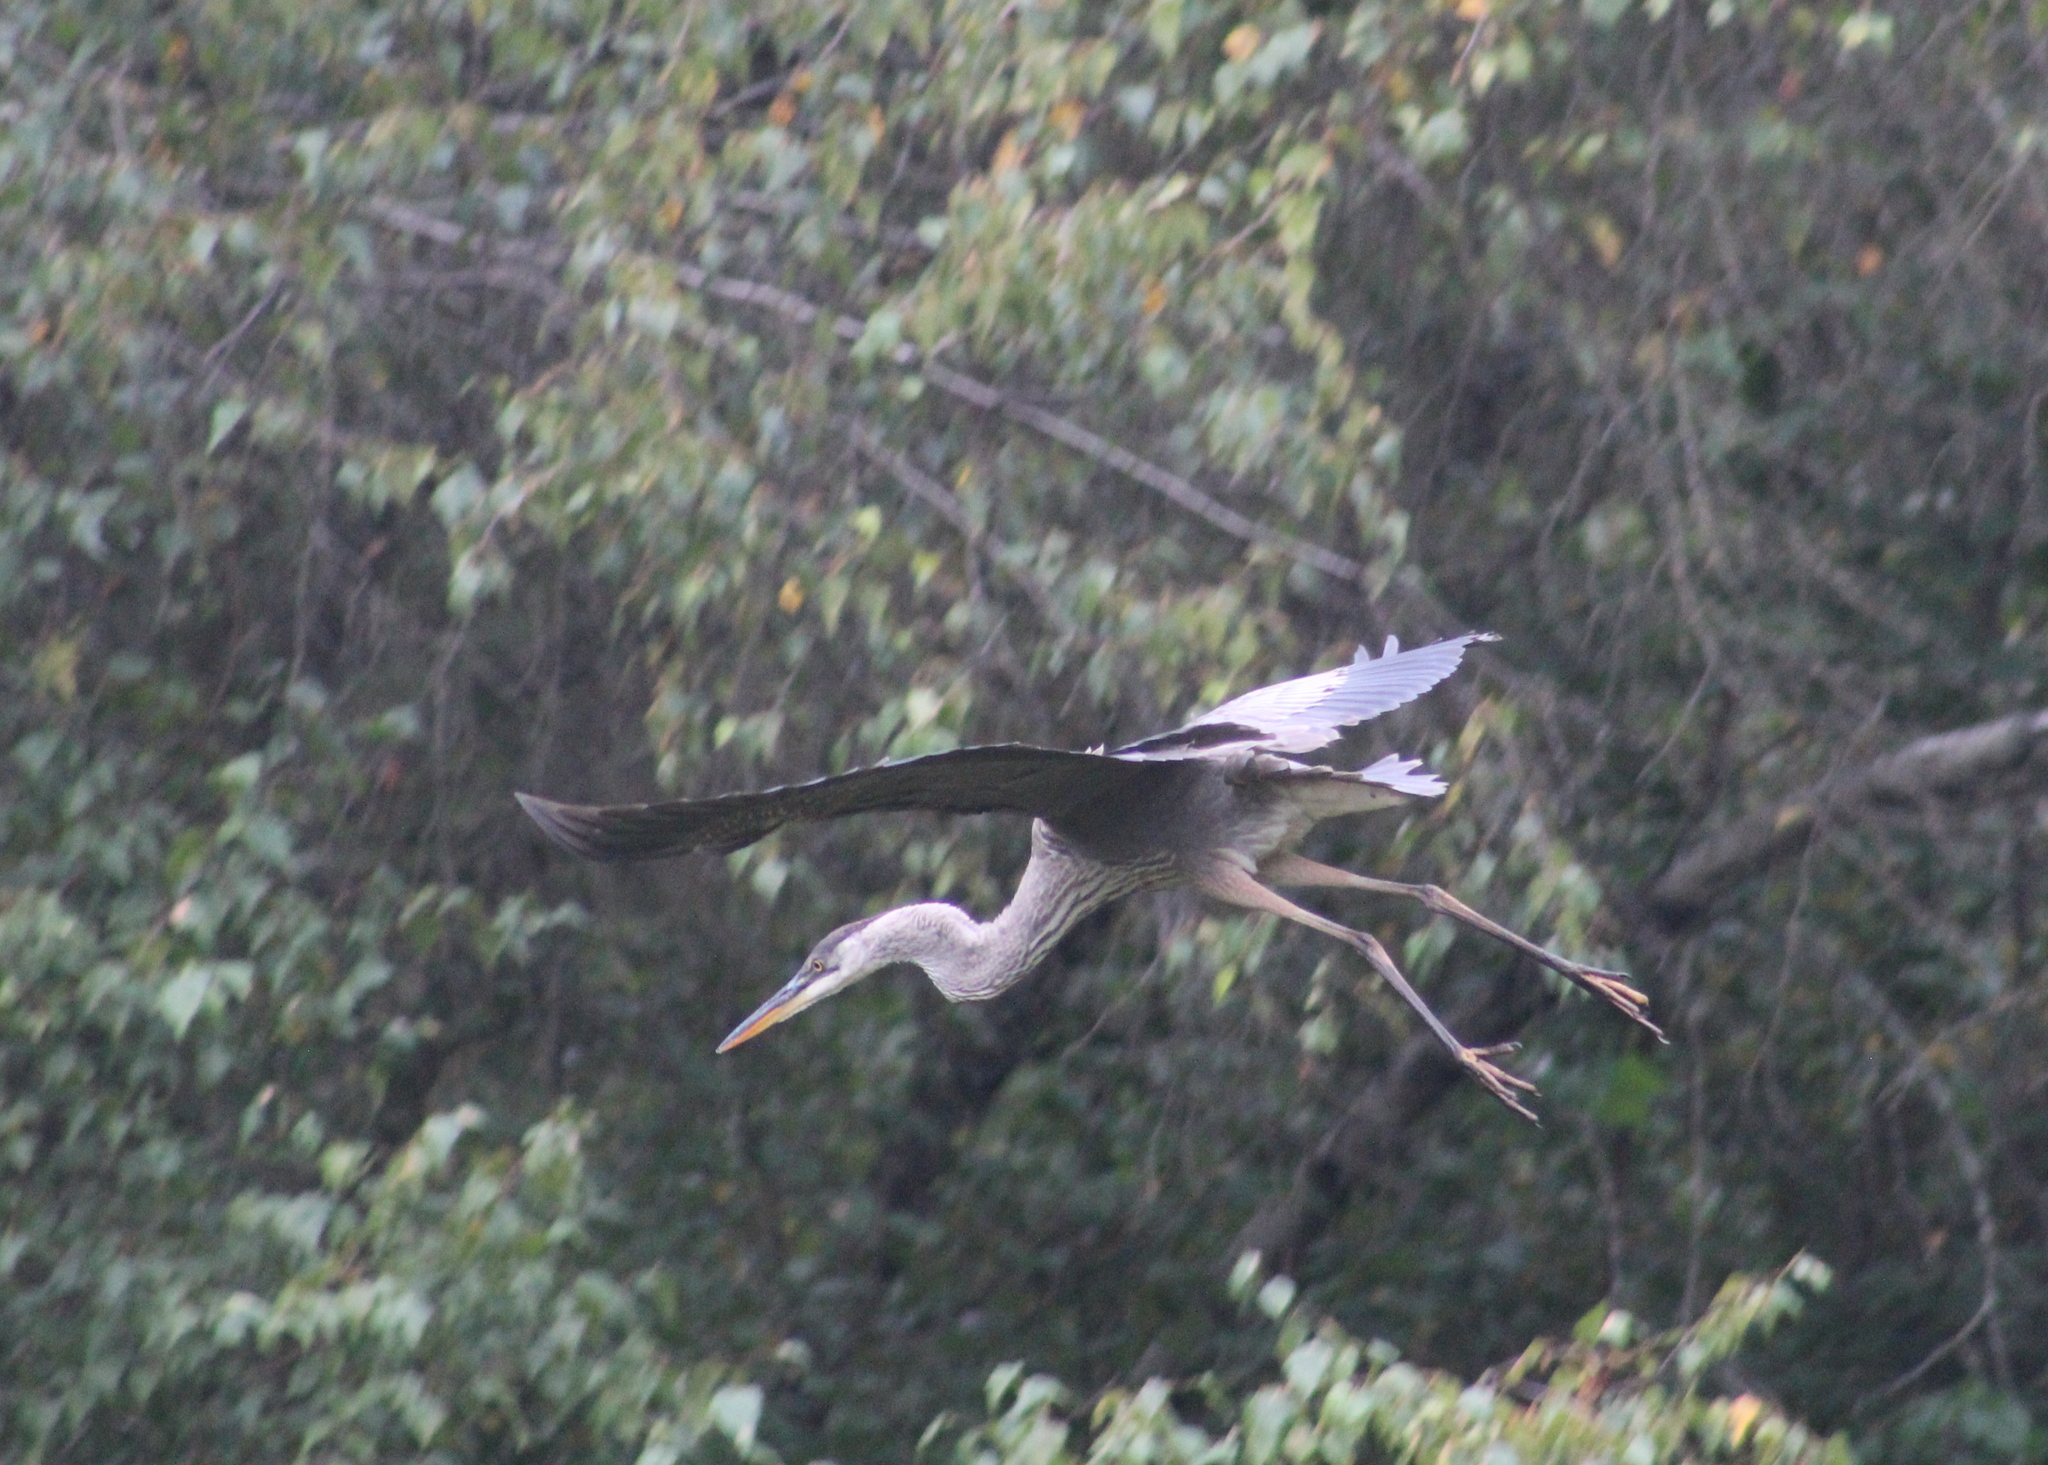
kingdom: Animalia
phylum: Chordata
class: Aves
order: Pelecaniformes
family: Ardeidae
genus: Ardea
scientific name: Ardea herodias
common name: Great blue heron
